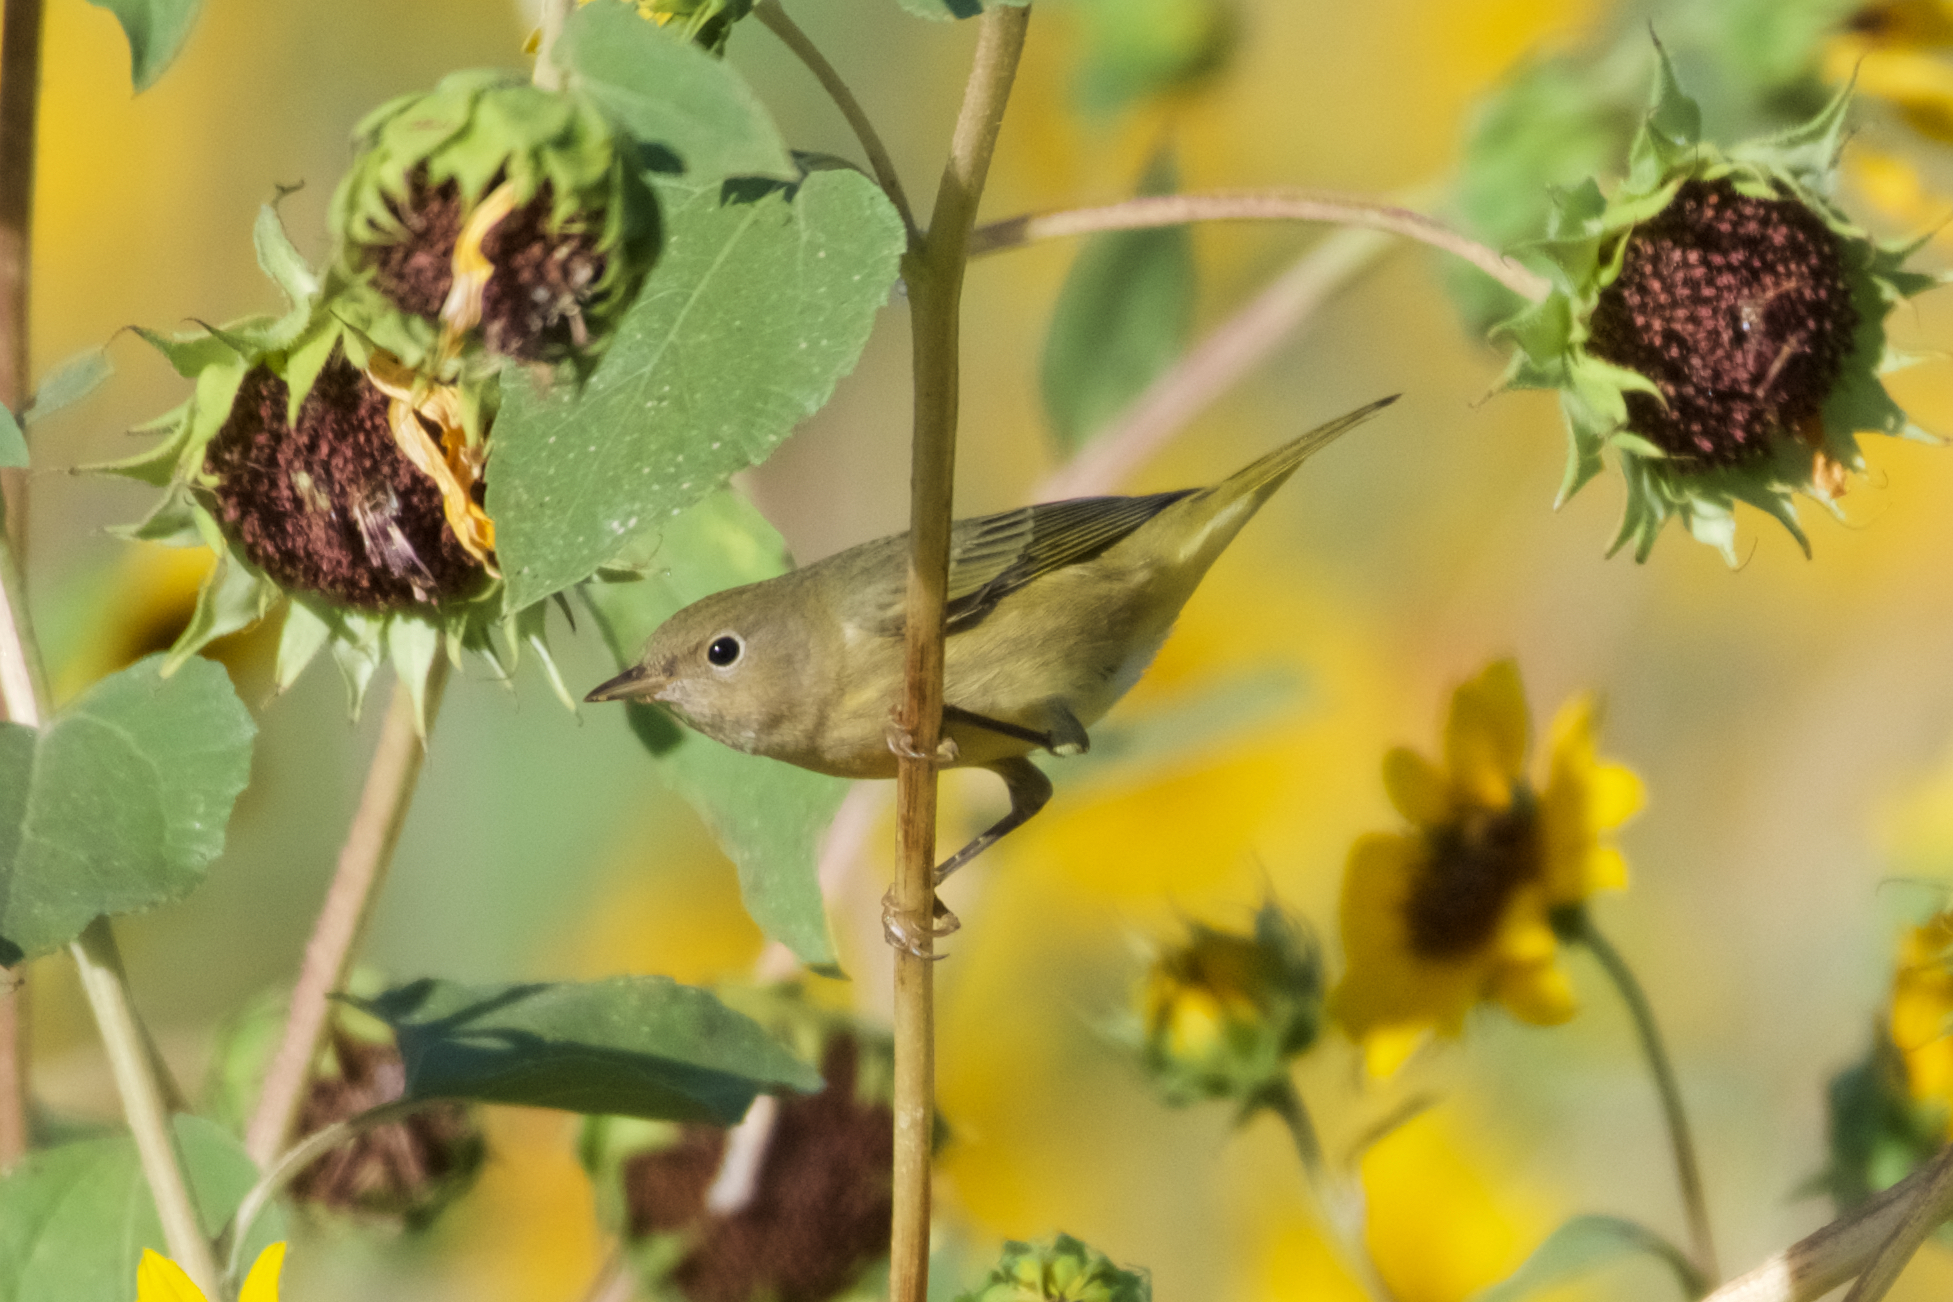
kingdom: Animalia
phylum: Chordata
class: Aves
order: Passeriformes
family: Parulidae
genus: Setophaga
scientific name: Setophaga petechia
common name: Yellow warbler
